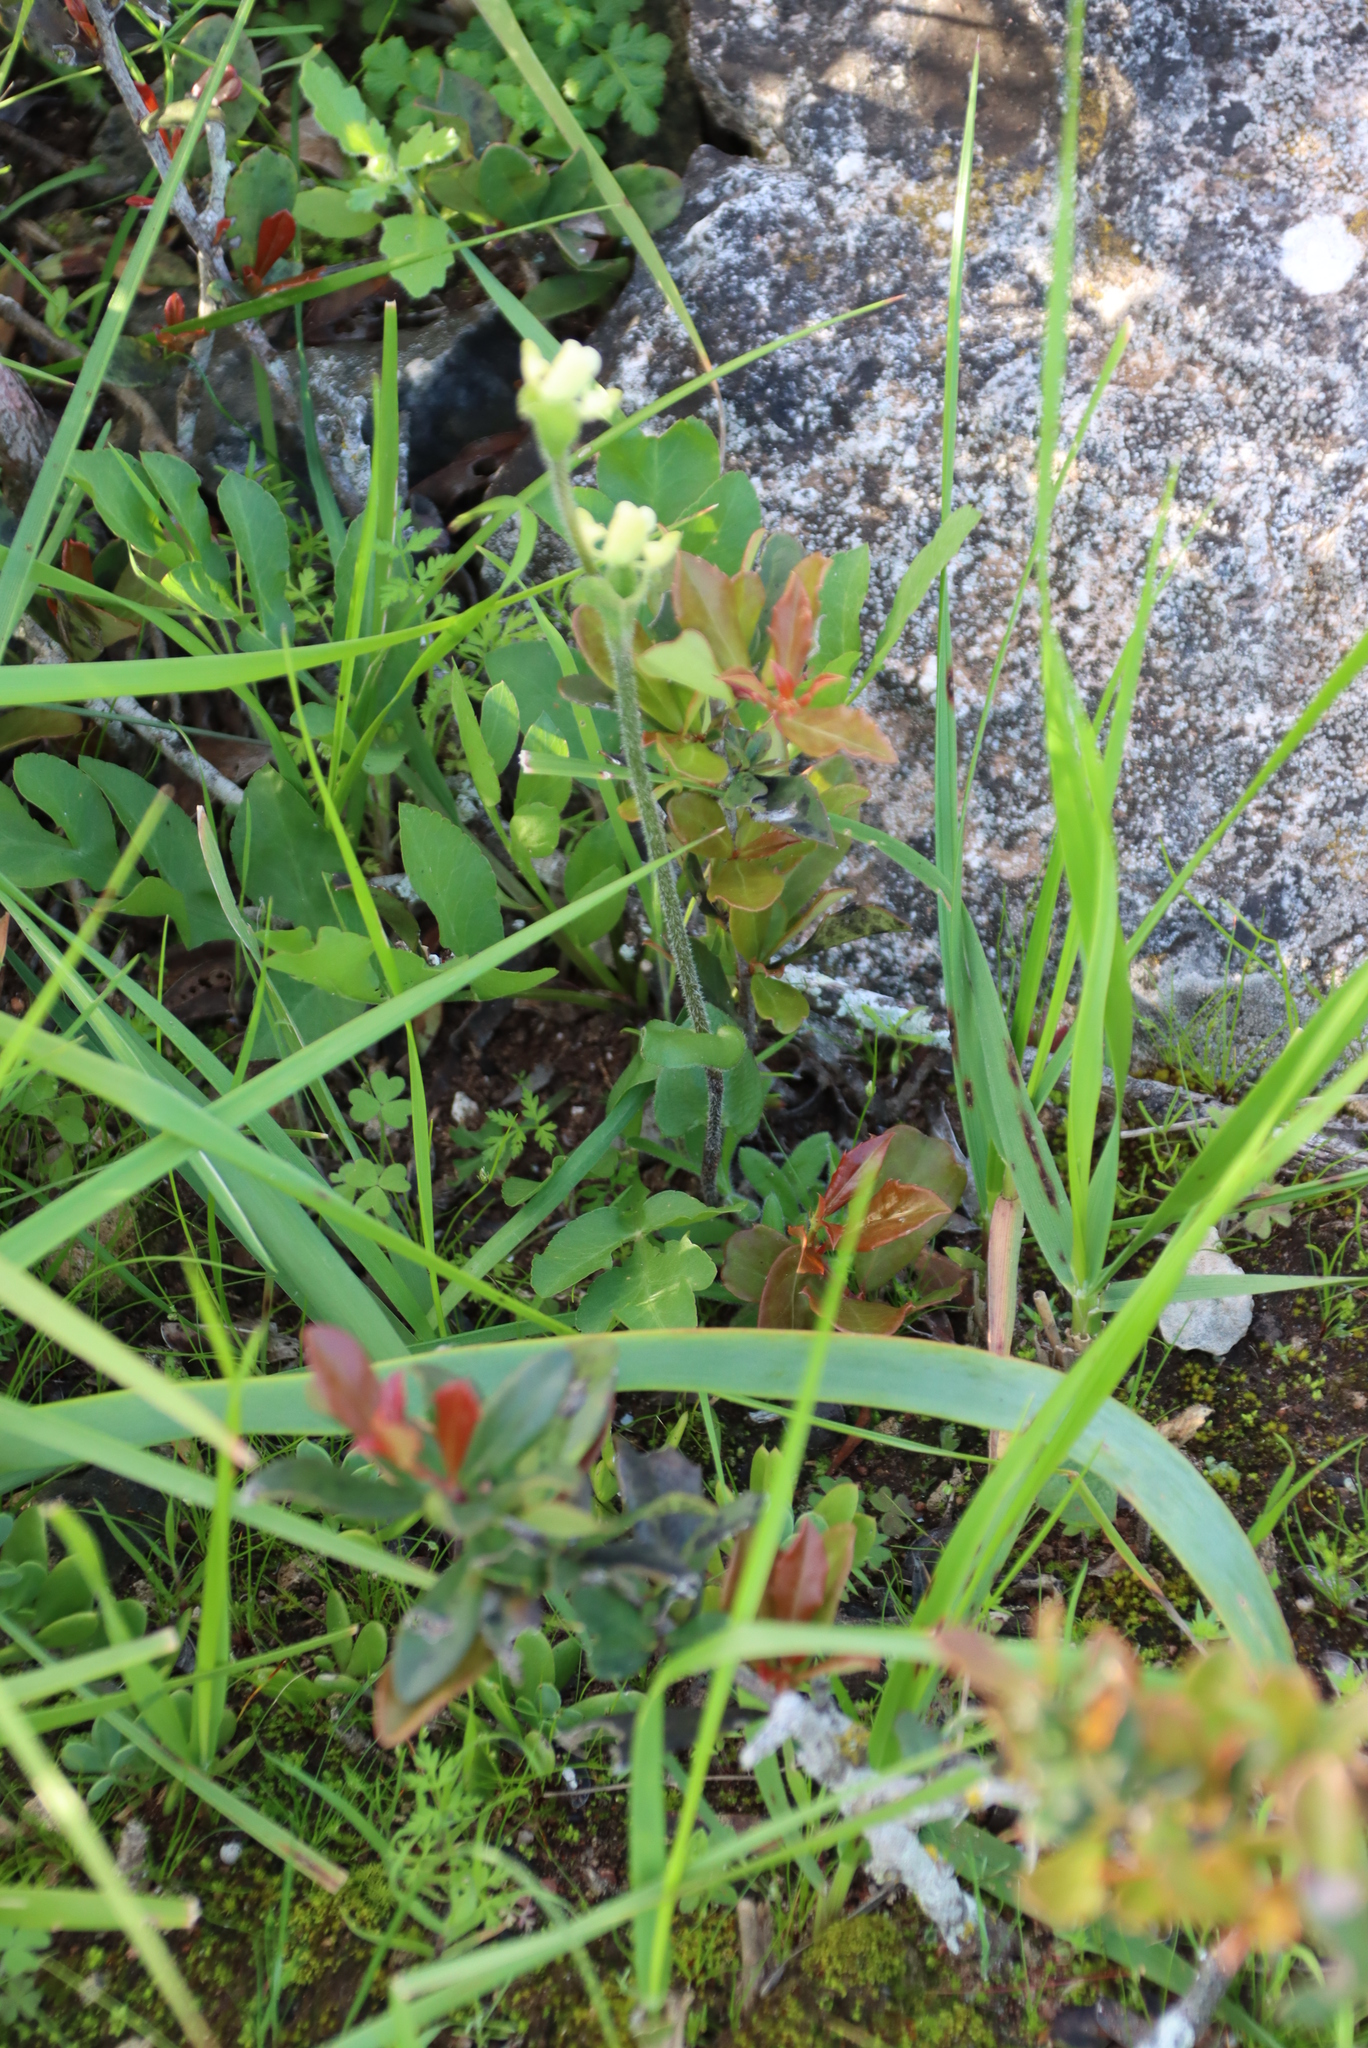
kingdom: Plantae
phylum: Tracheophyta
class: Liliopsida
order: Asparagales
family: Orchidaceae
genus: Disperis
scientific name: Disperis villosa
